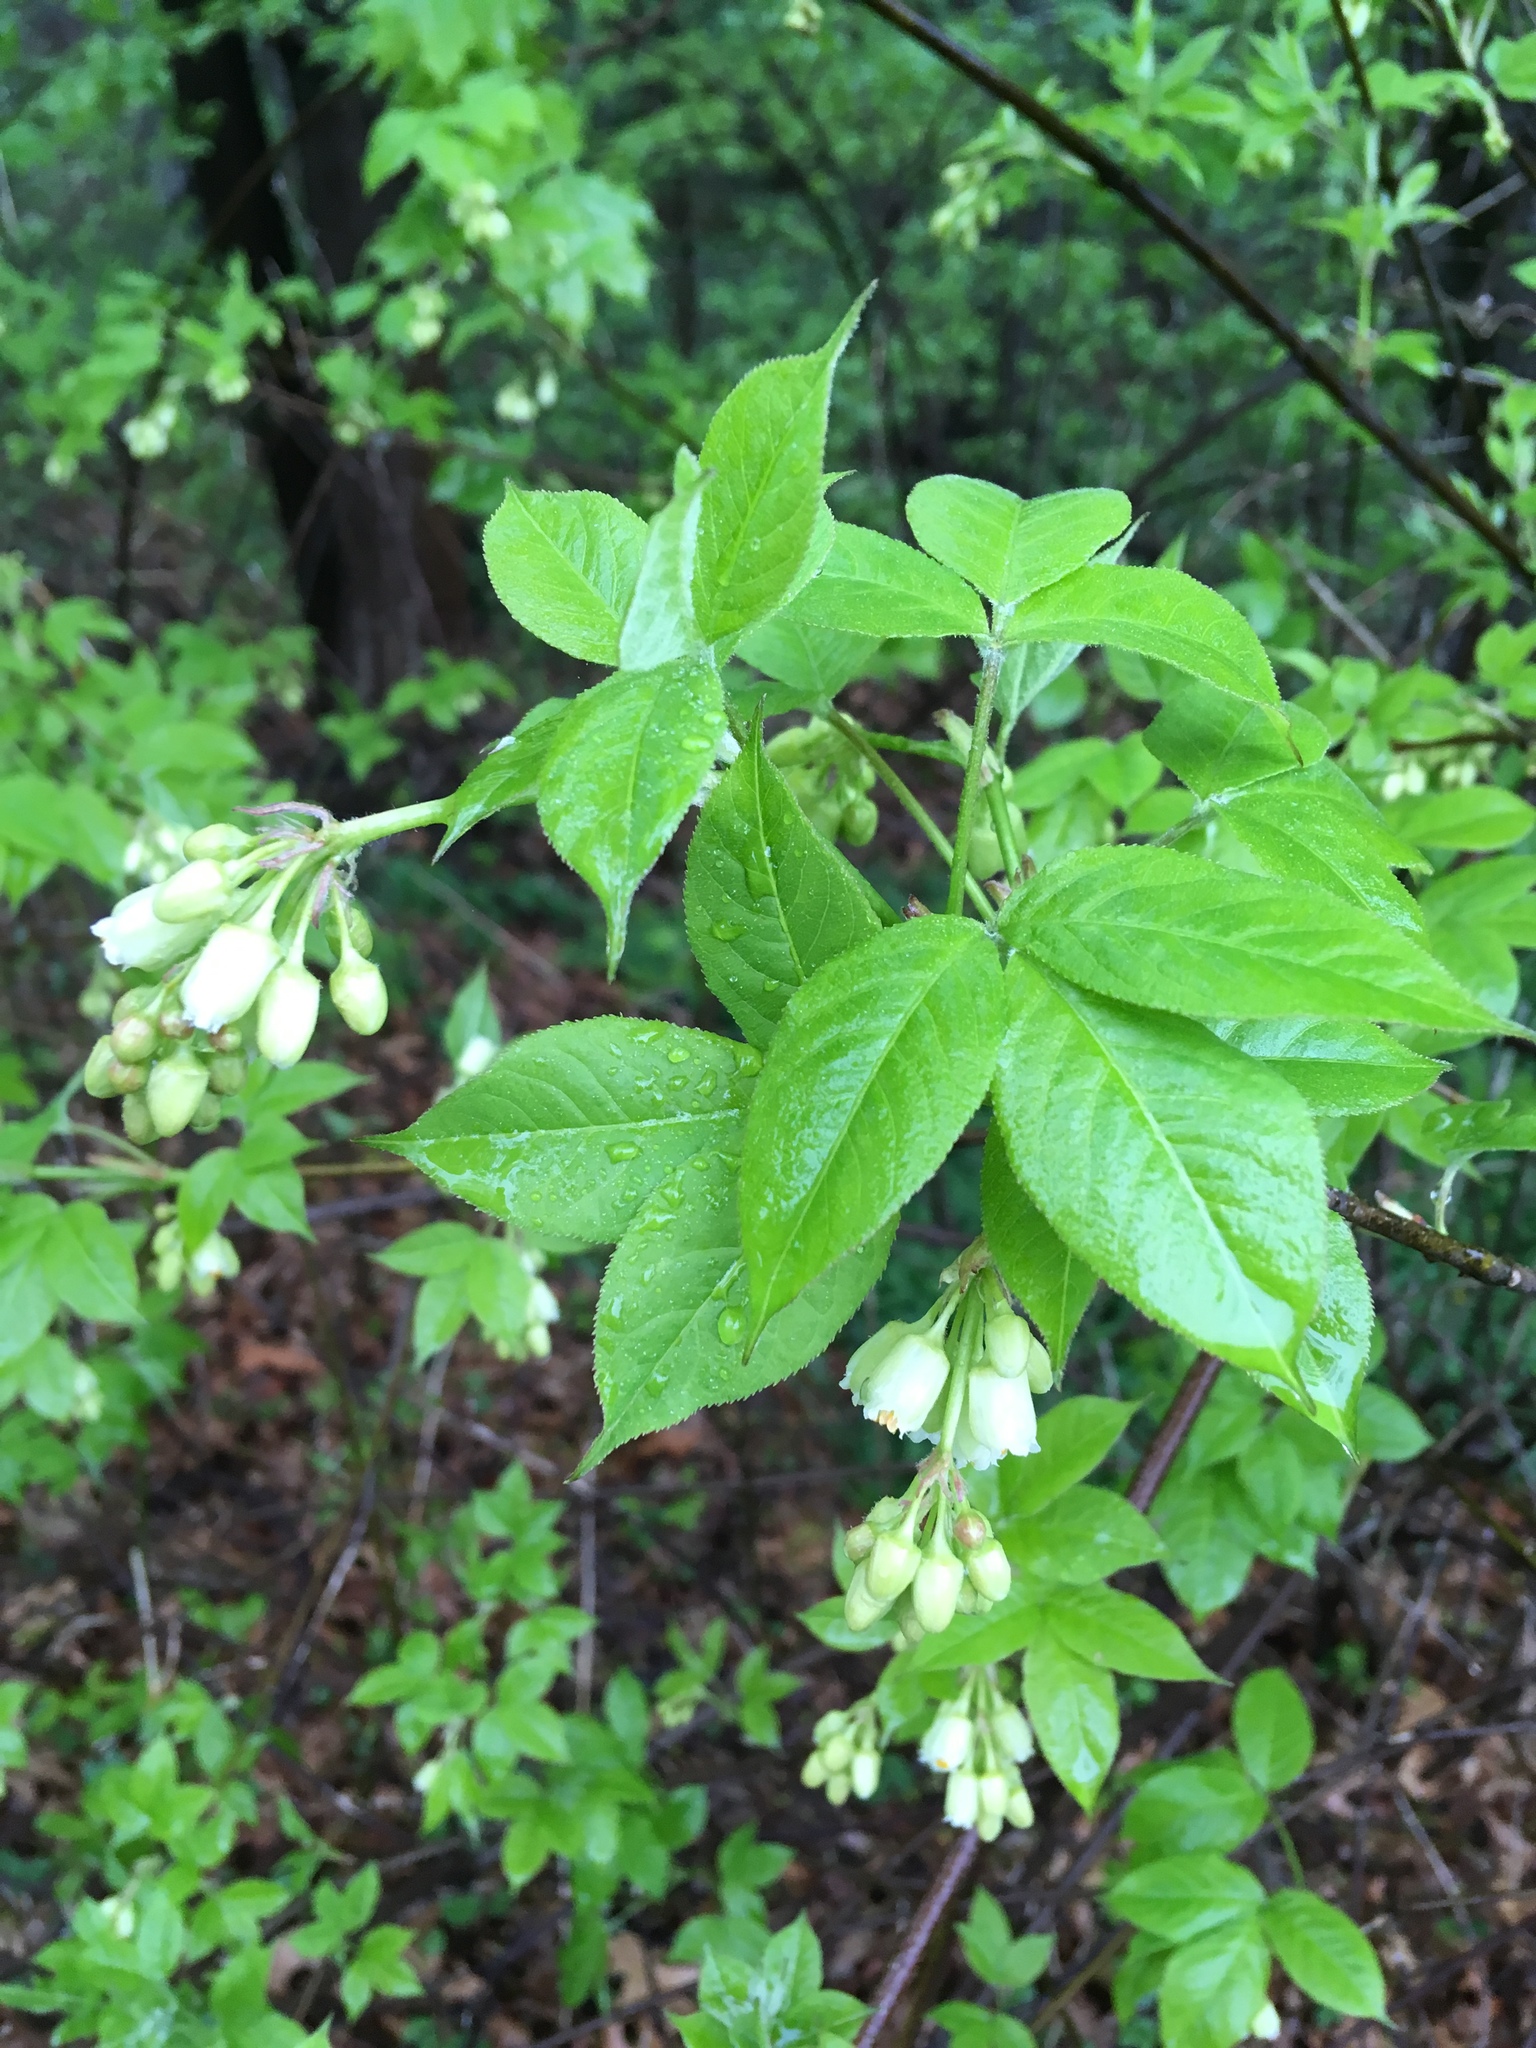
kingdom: Plantae
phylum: Tracheophyta
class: Magnoliopsida
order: Crossosomatales
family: Staphyleaceae
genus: Staphylea
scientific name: Staphylea trifolia
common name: American bladdernut
